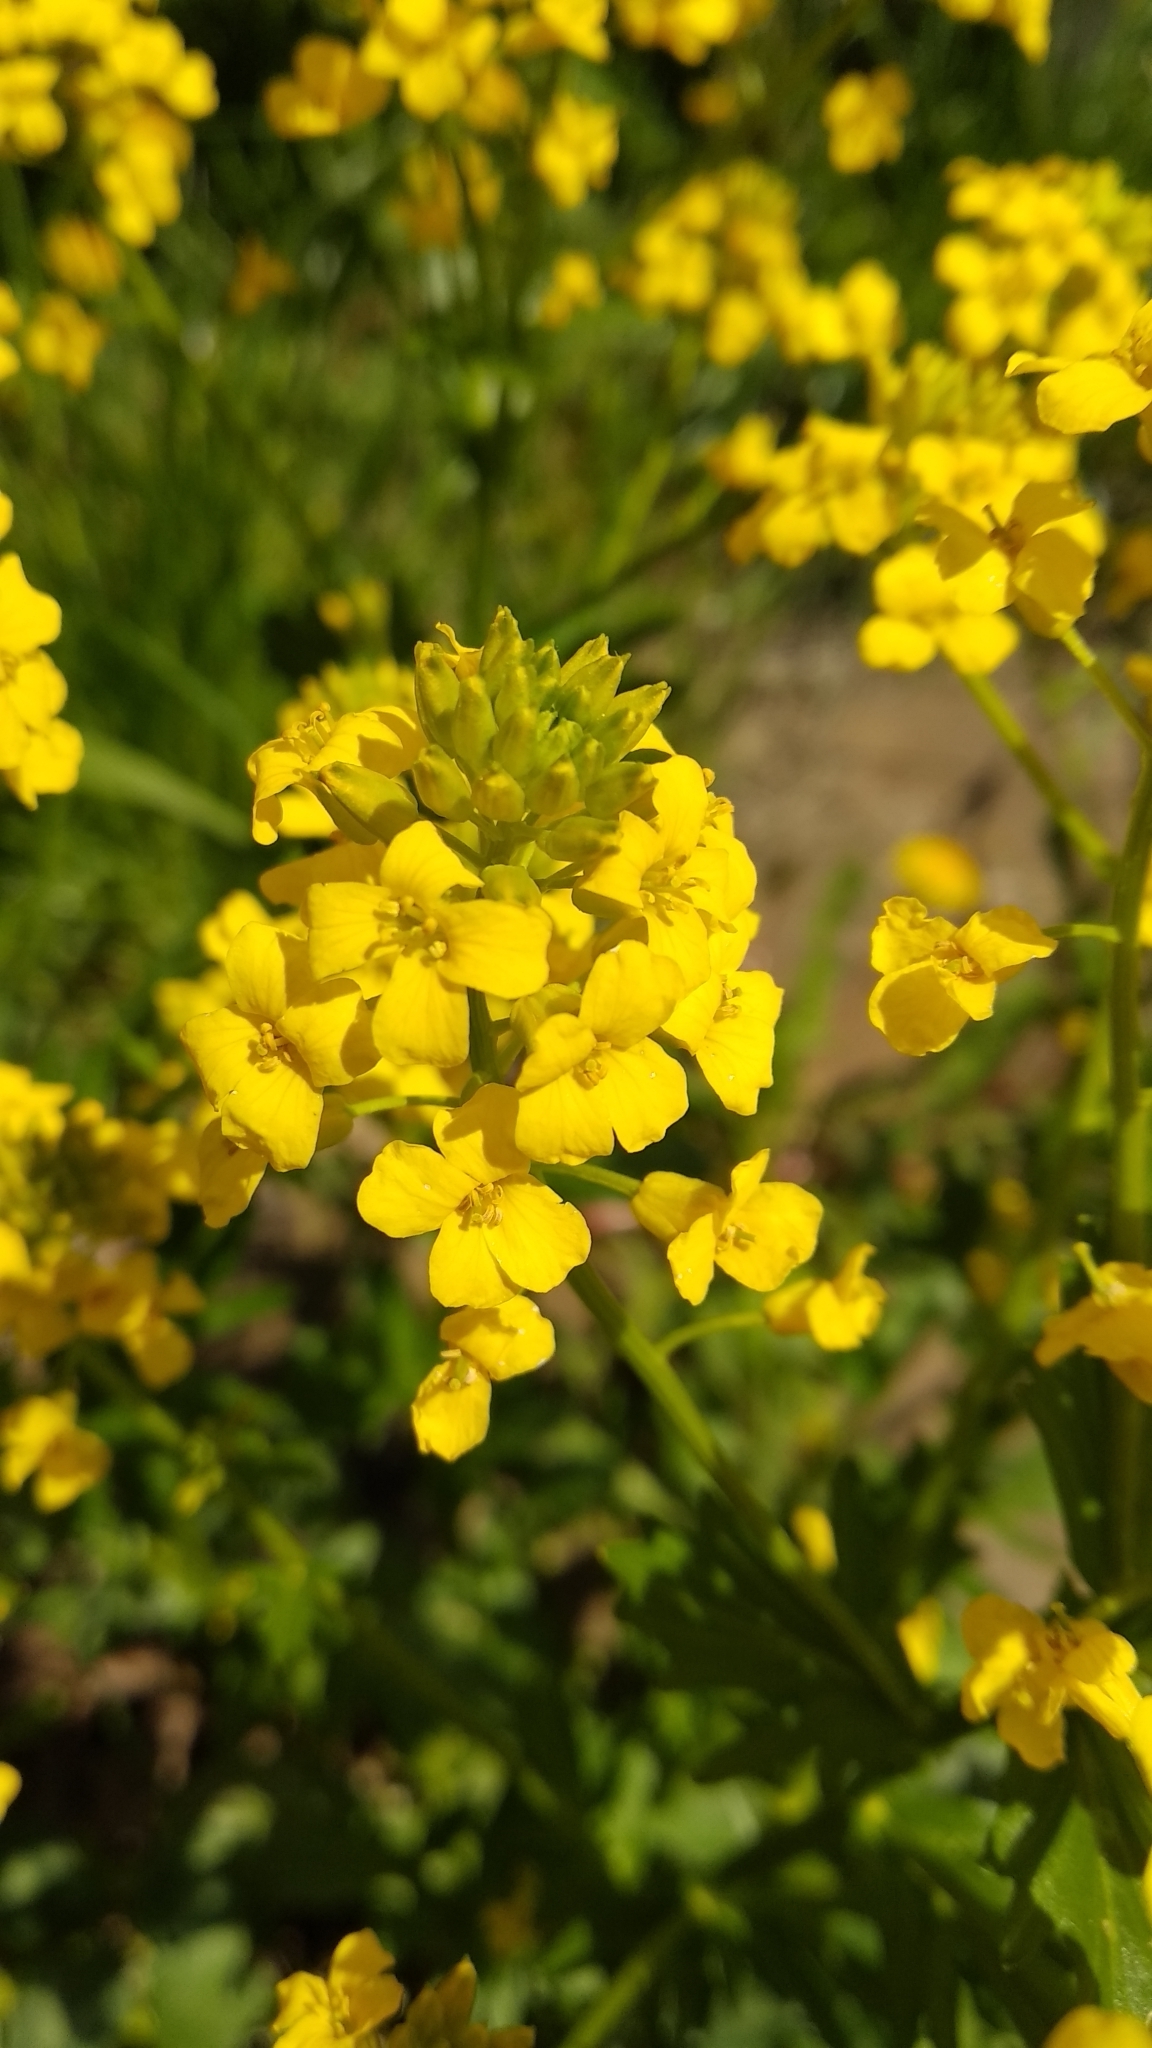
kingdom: Plantae
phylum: Tracheophyta
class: Magnoliopsida
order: Brassicales
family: Brassicaceae
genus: Barbarea
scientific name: Barbarea vulgaris
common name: Cressy-greens
